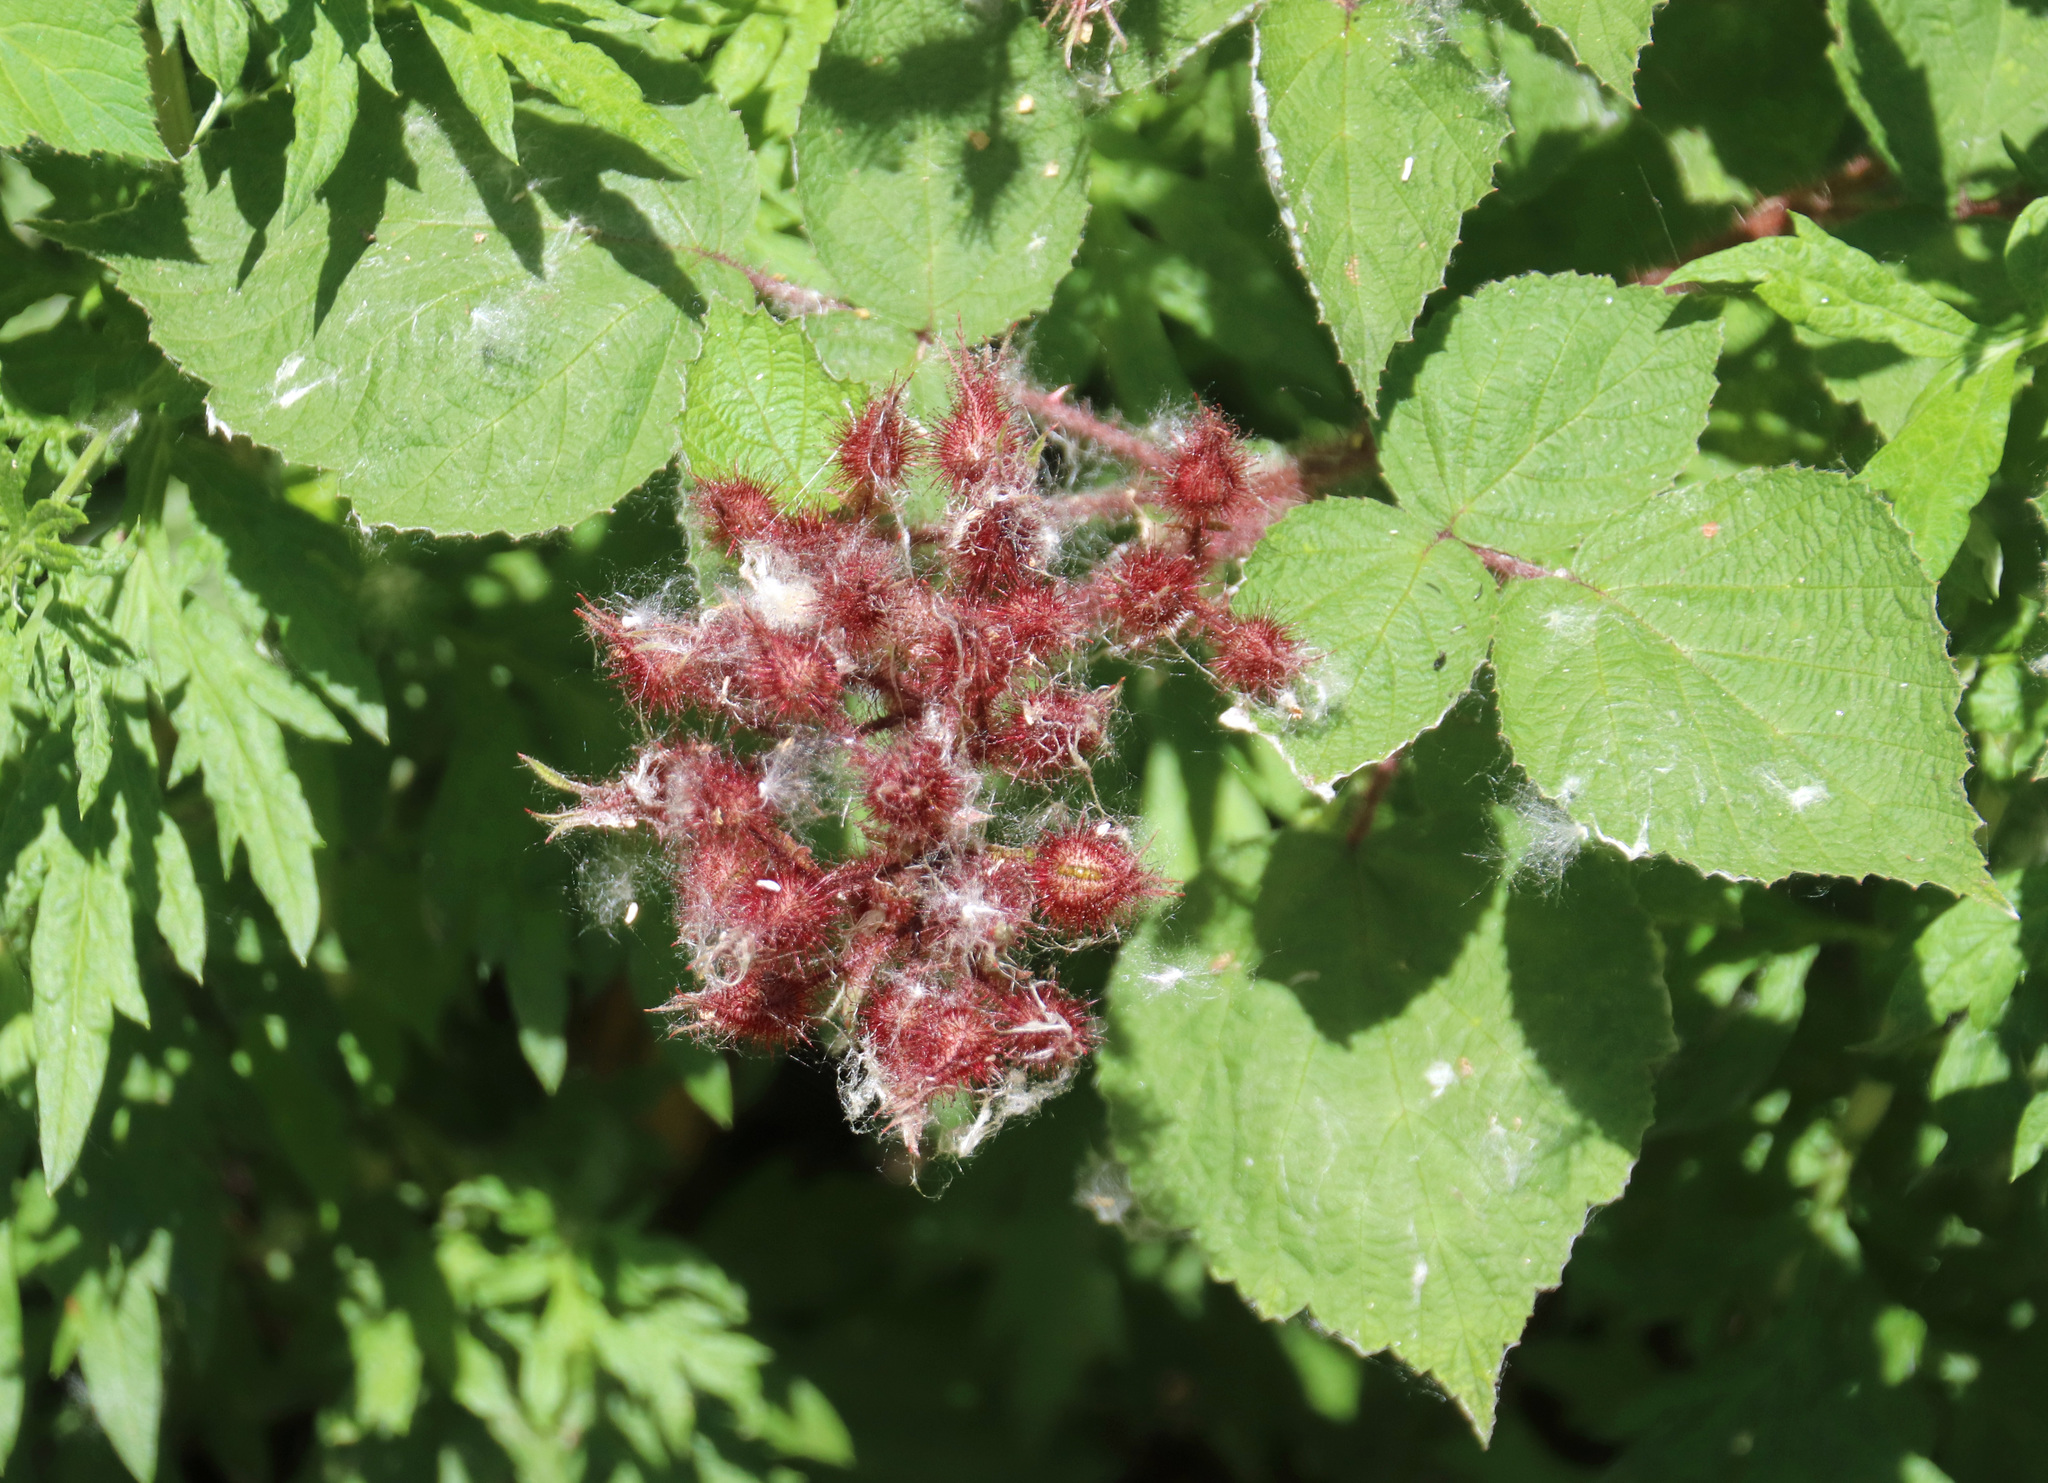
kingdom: Plantae
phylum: Tracheophyta
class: Magnoliopsida
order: Rosales
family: Rosaceae
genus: Rubus
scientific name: Rubus phoenicolasius
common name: Japanese wineberry
